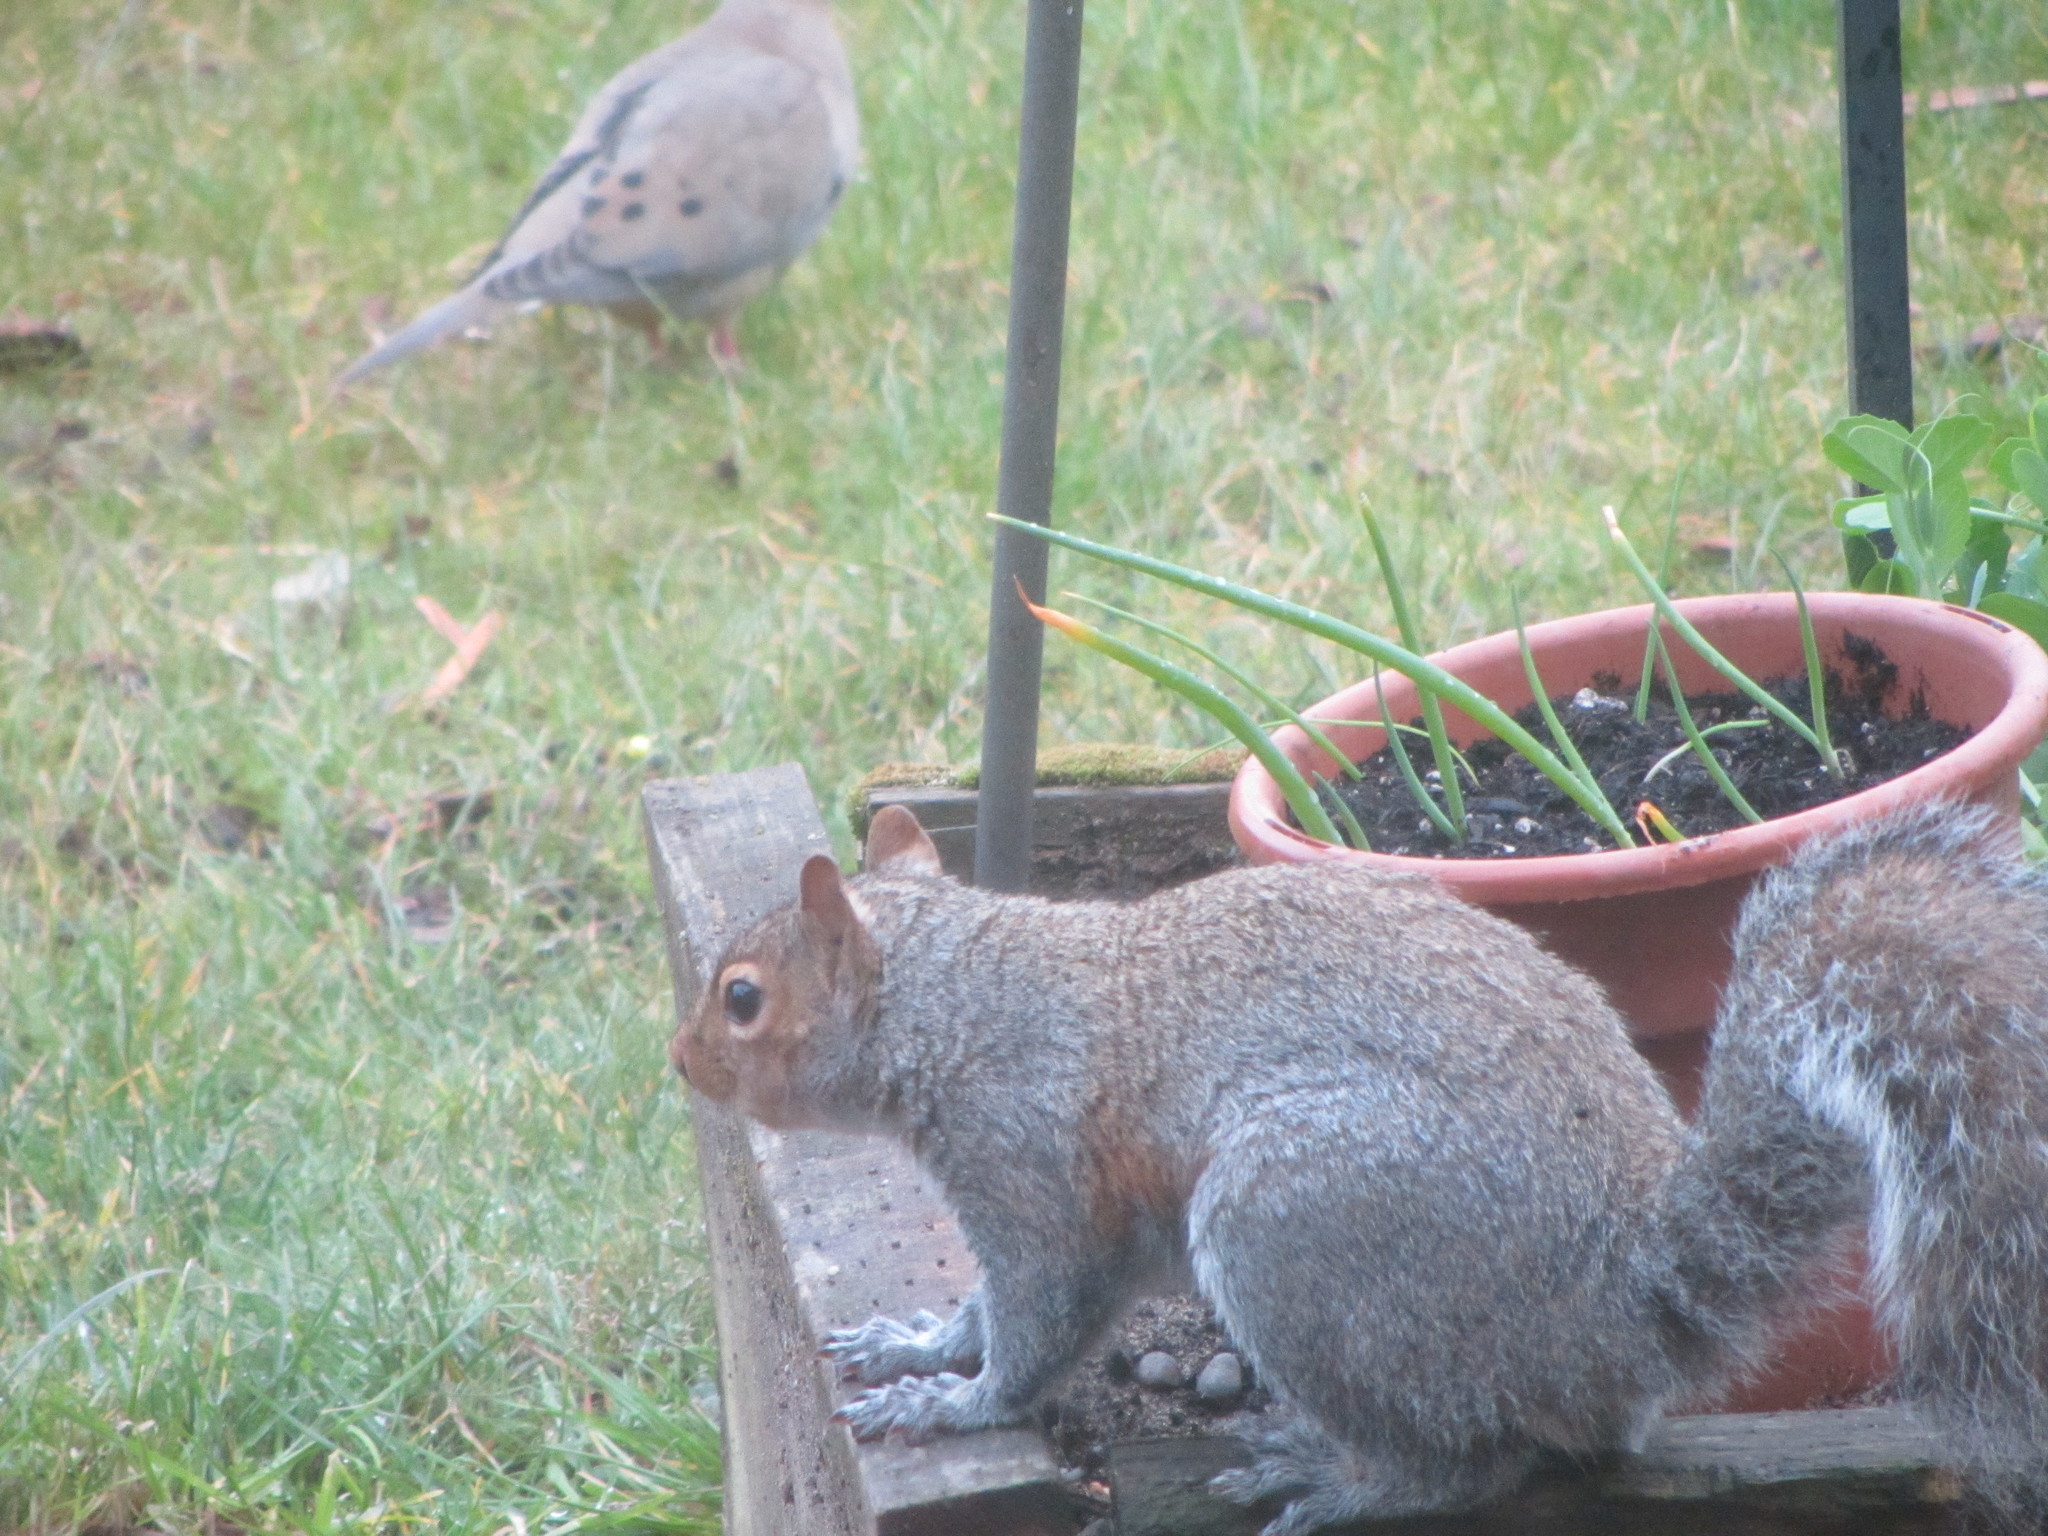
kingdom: Animalia
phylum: Chordata
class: Mammalia
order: Rodentia
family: Sciuridae
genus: Sciurus
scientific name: Sciurus carolinensis
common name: Eastern gray squirrel
